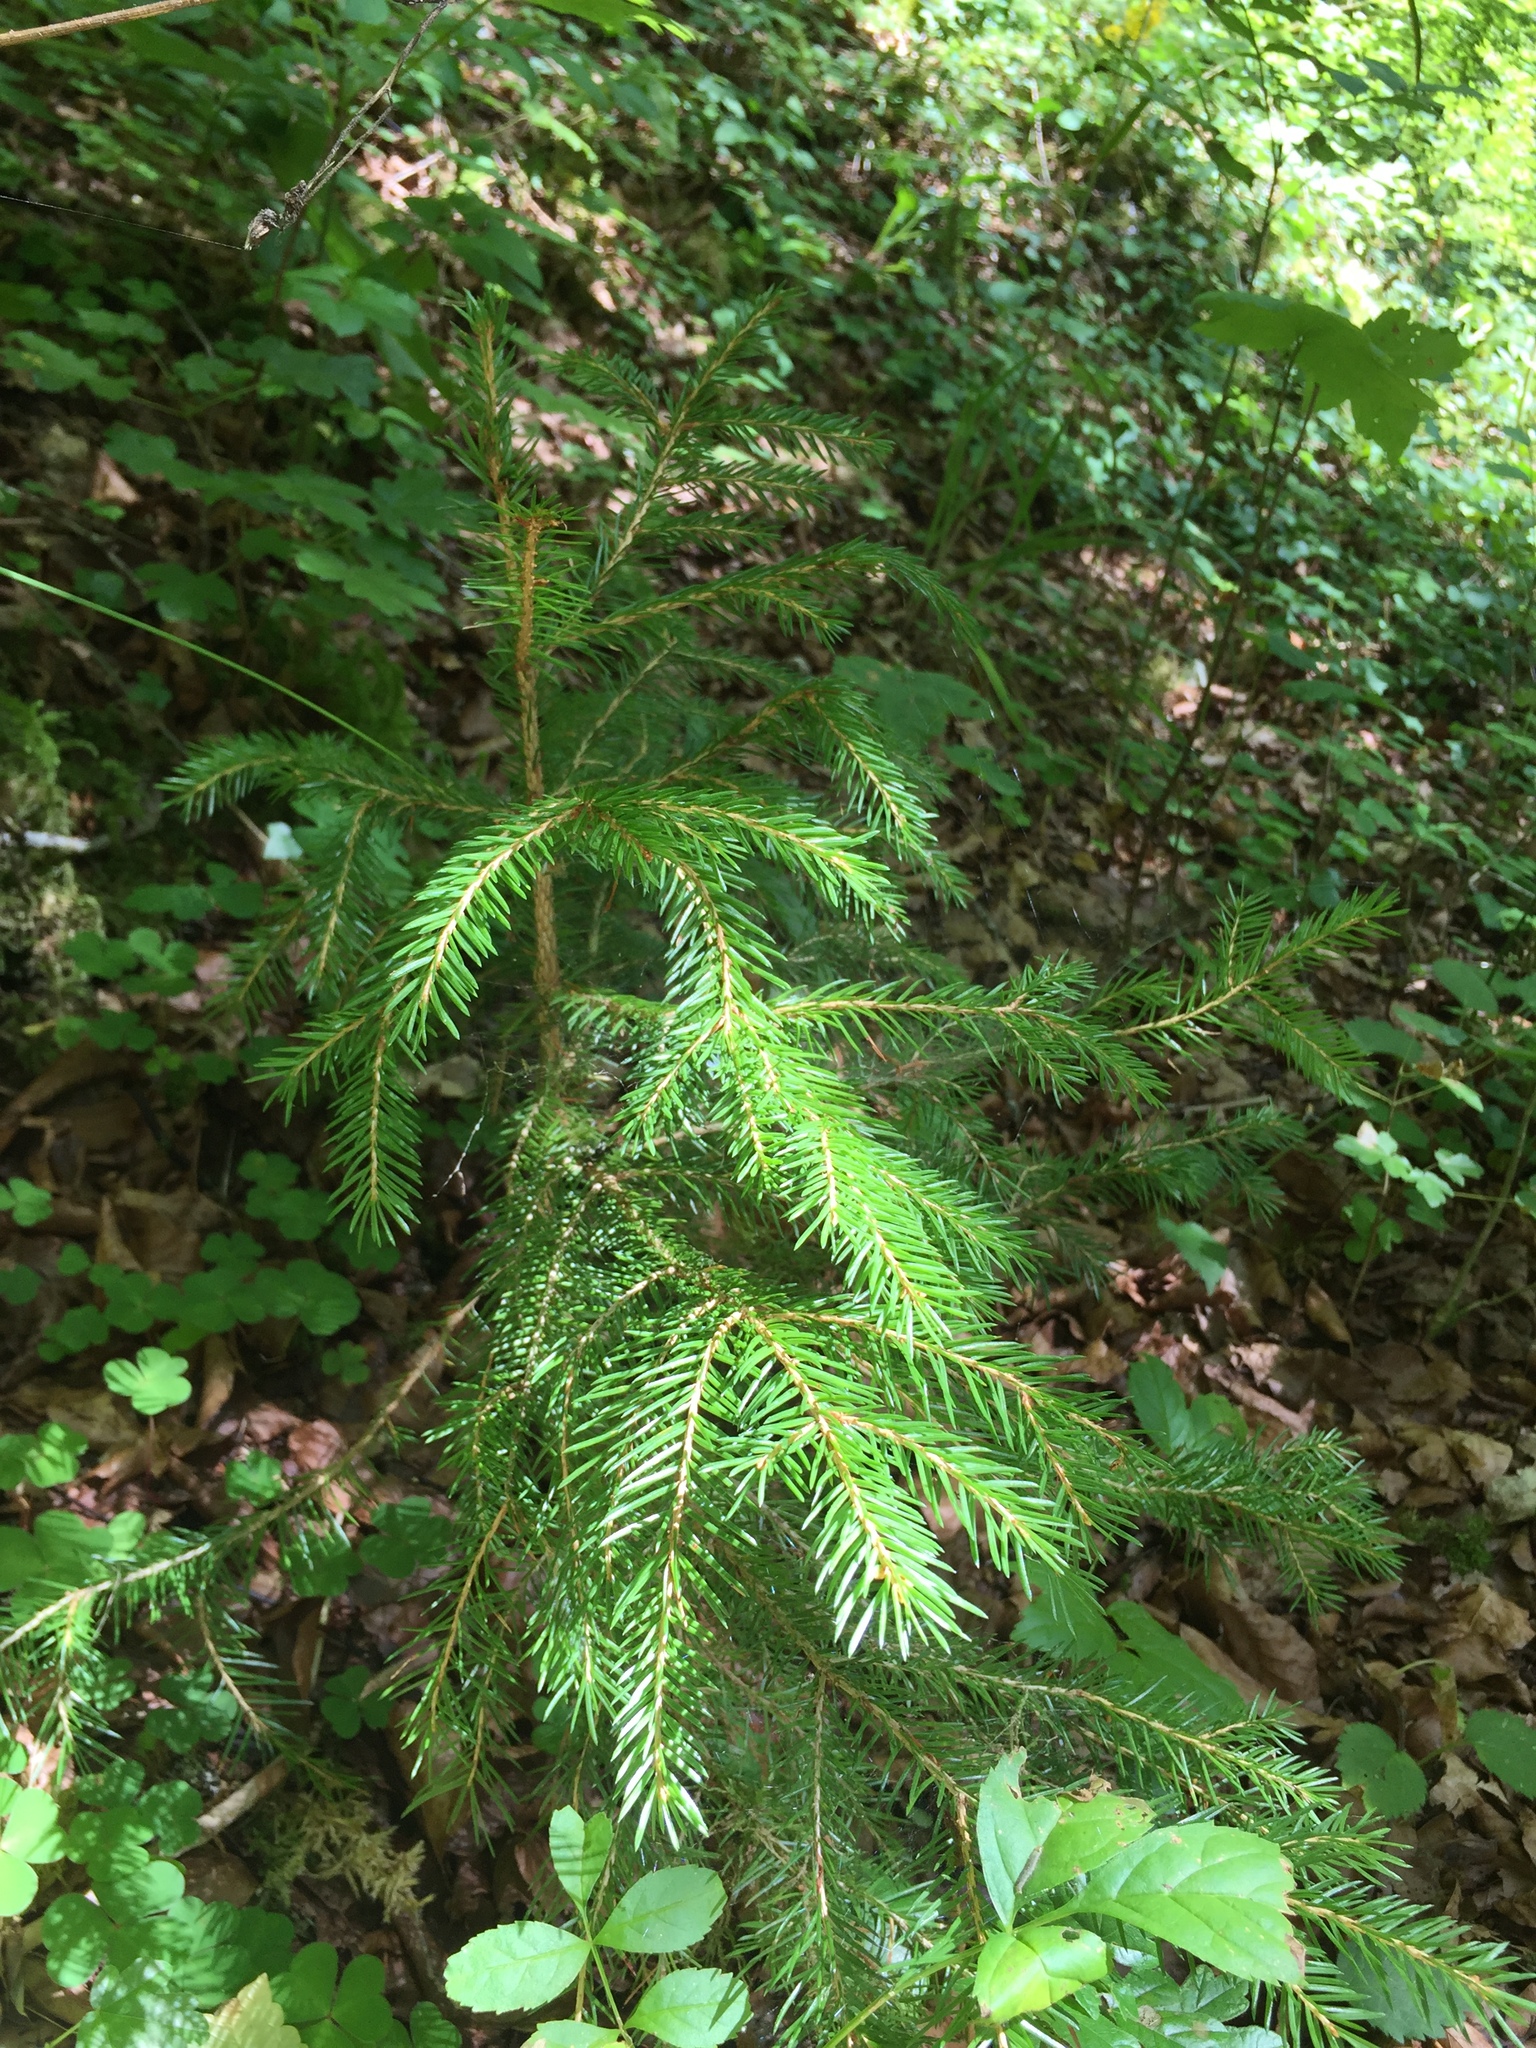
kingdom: Plantae
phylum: Tracheophyta
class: Pinopsida
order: Pinales
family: Pinaceae
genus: Picea
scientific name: Picea abies
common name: Norway spruce
